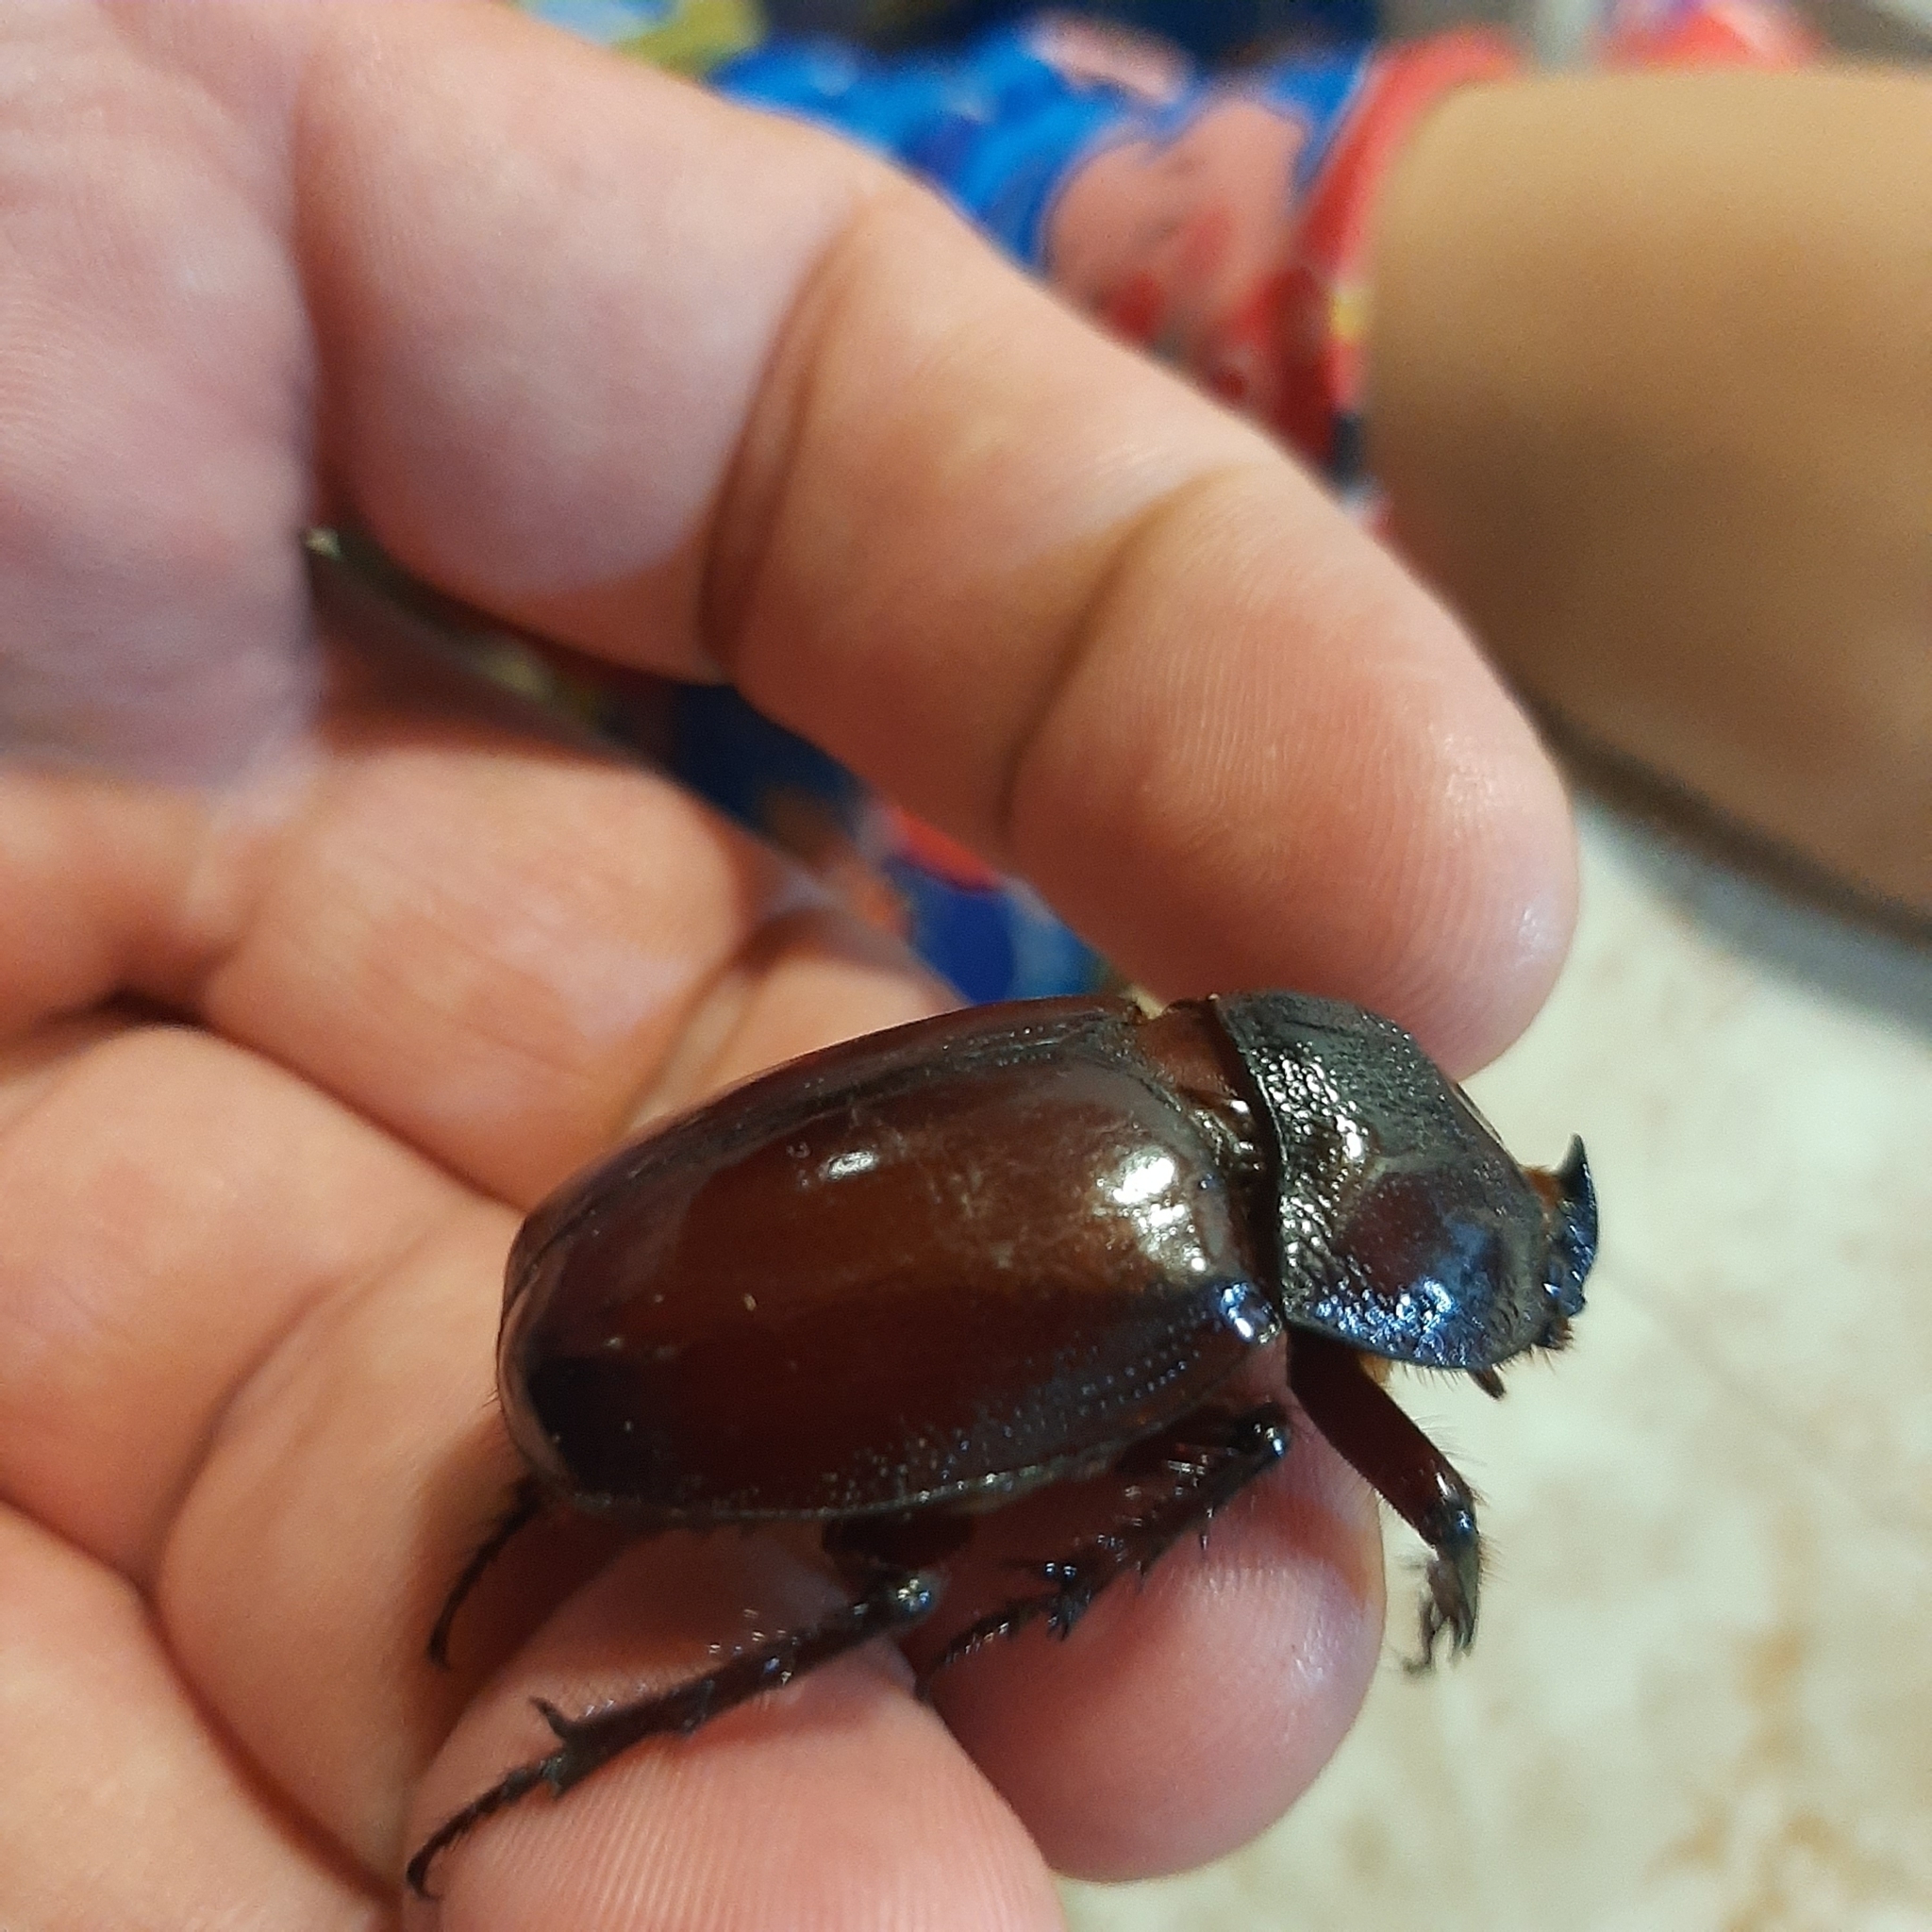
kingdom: Animalia
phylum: Arthropoda
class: Insecta
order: Coleoptera
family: Scarabaeidae
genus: Enema
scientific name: Enema endymion
